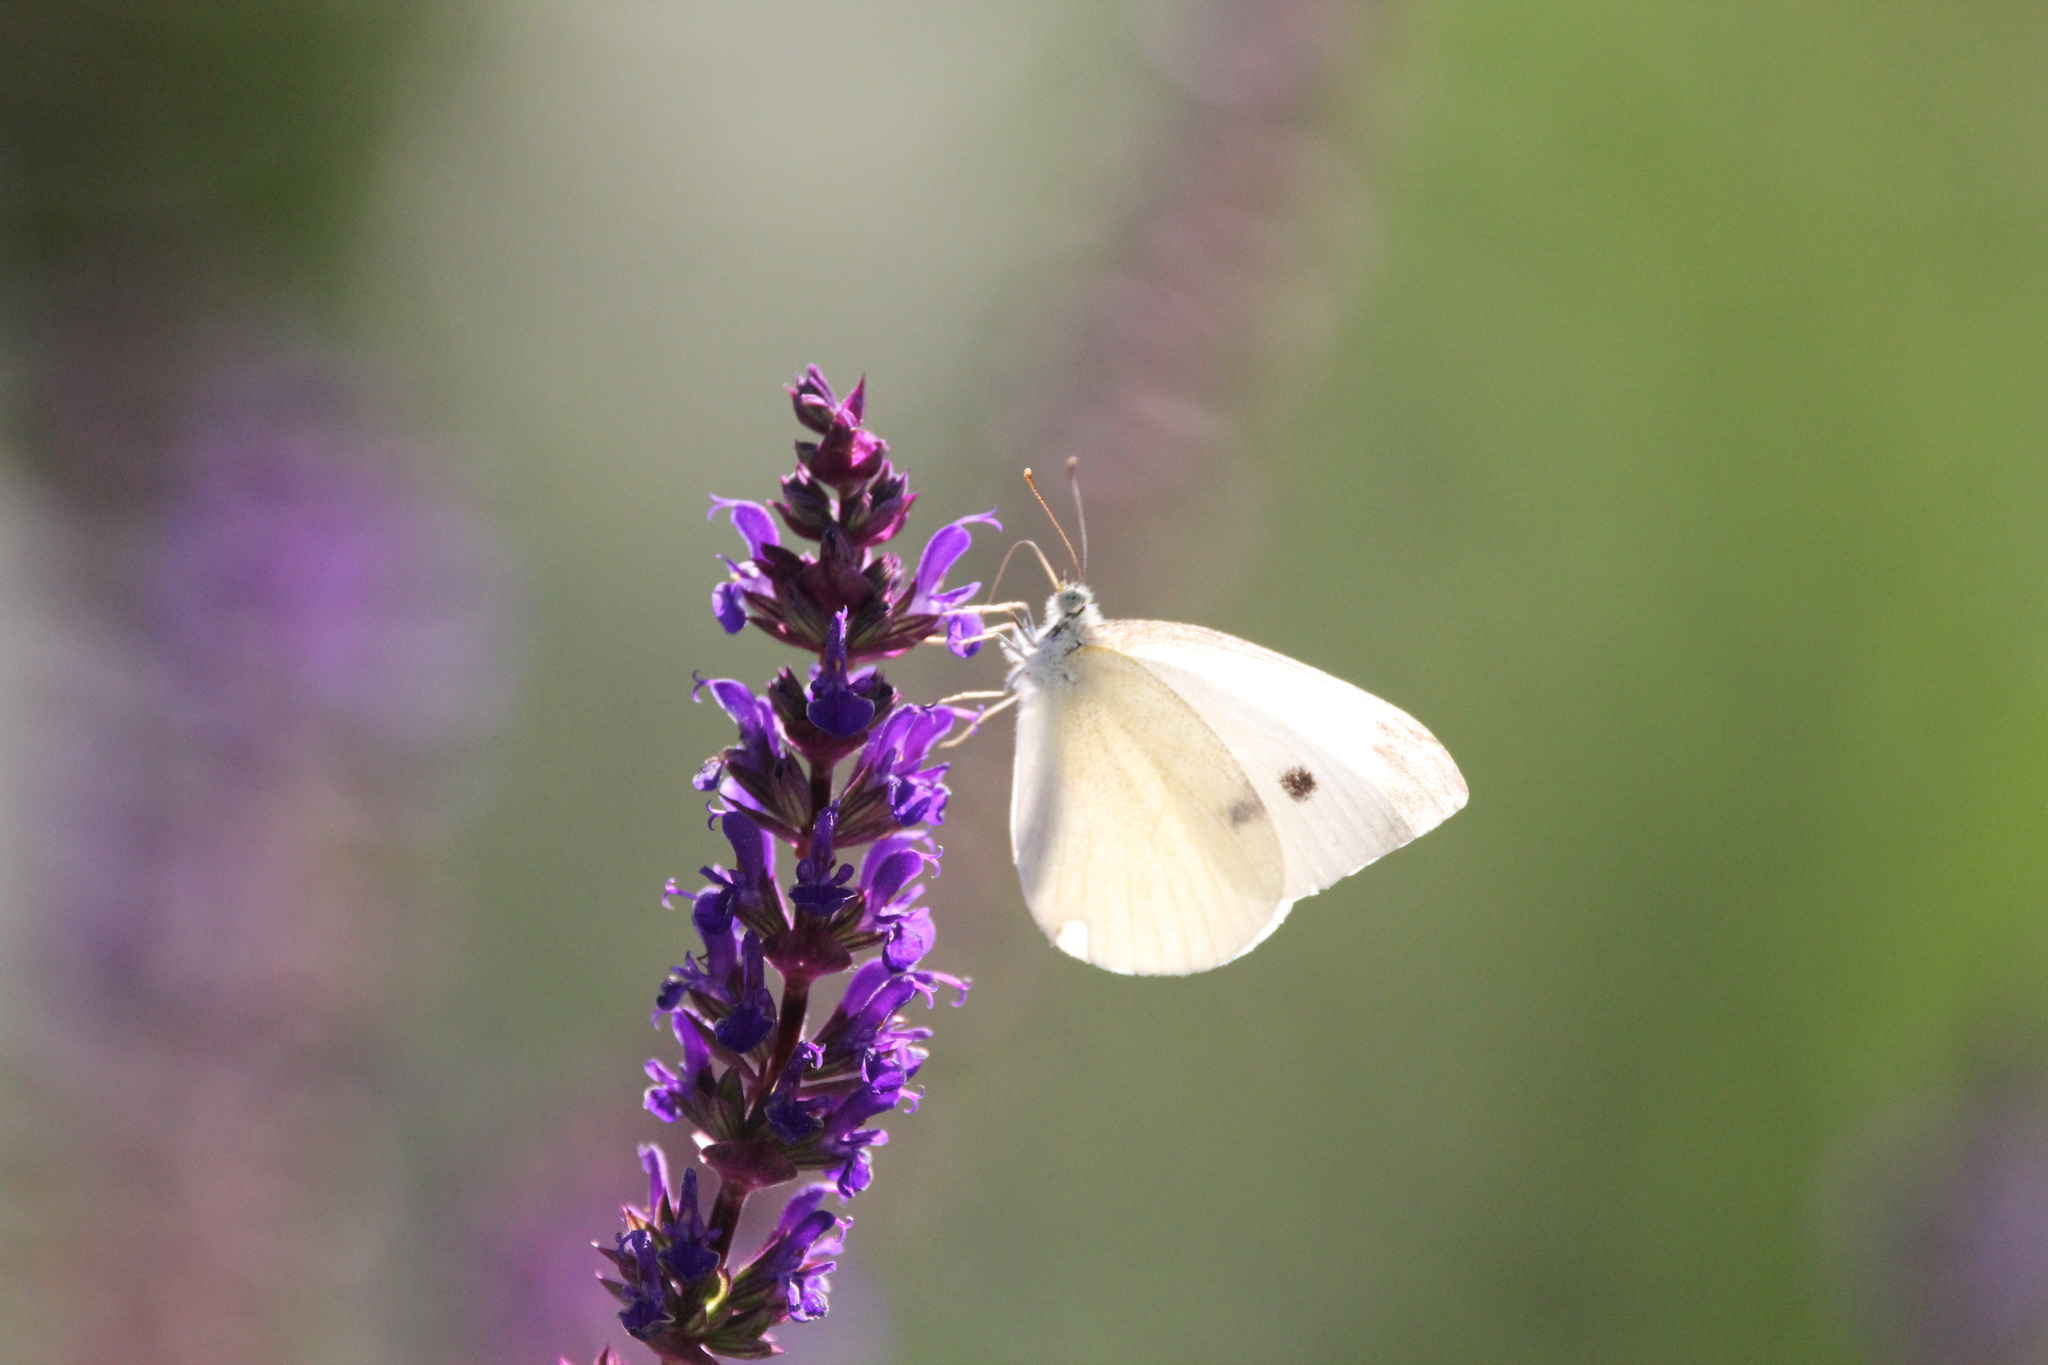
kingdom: Animalia
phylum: Arthropoda
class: Insecta
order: Lepidoptera
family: Pieridae
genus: Pieris
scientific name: Pieris rapae
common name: Small white
